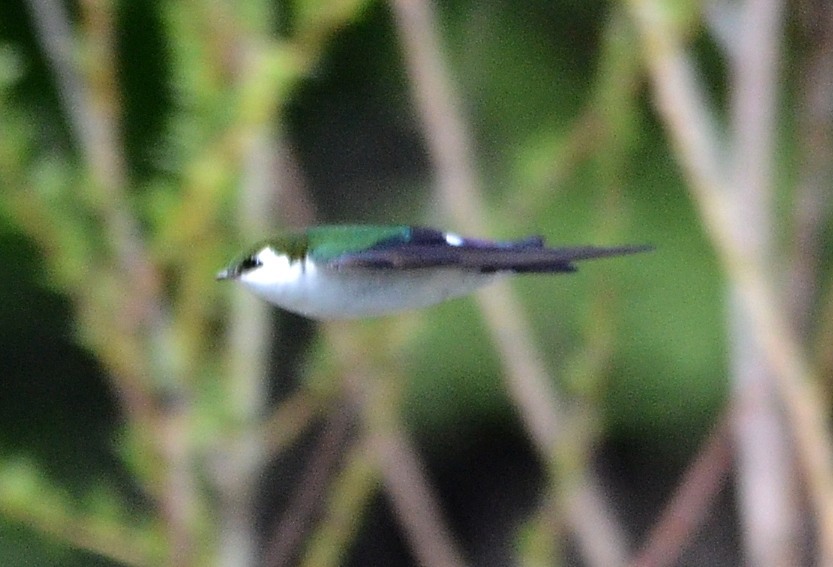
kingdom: Animalia
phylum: Chordata
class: Aves
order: Passeriformes
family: Hirundinidae
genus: Tachycineta
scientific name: Tachycineta thalassina
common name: Violet-green swallow
